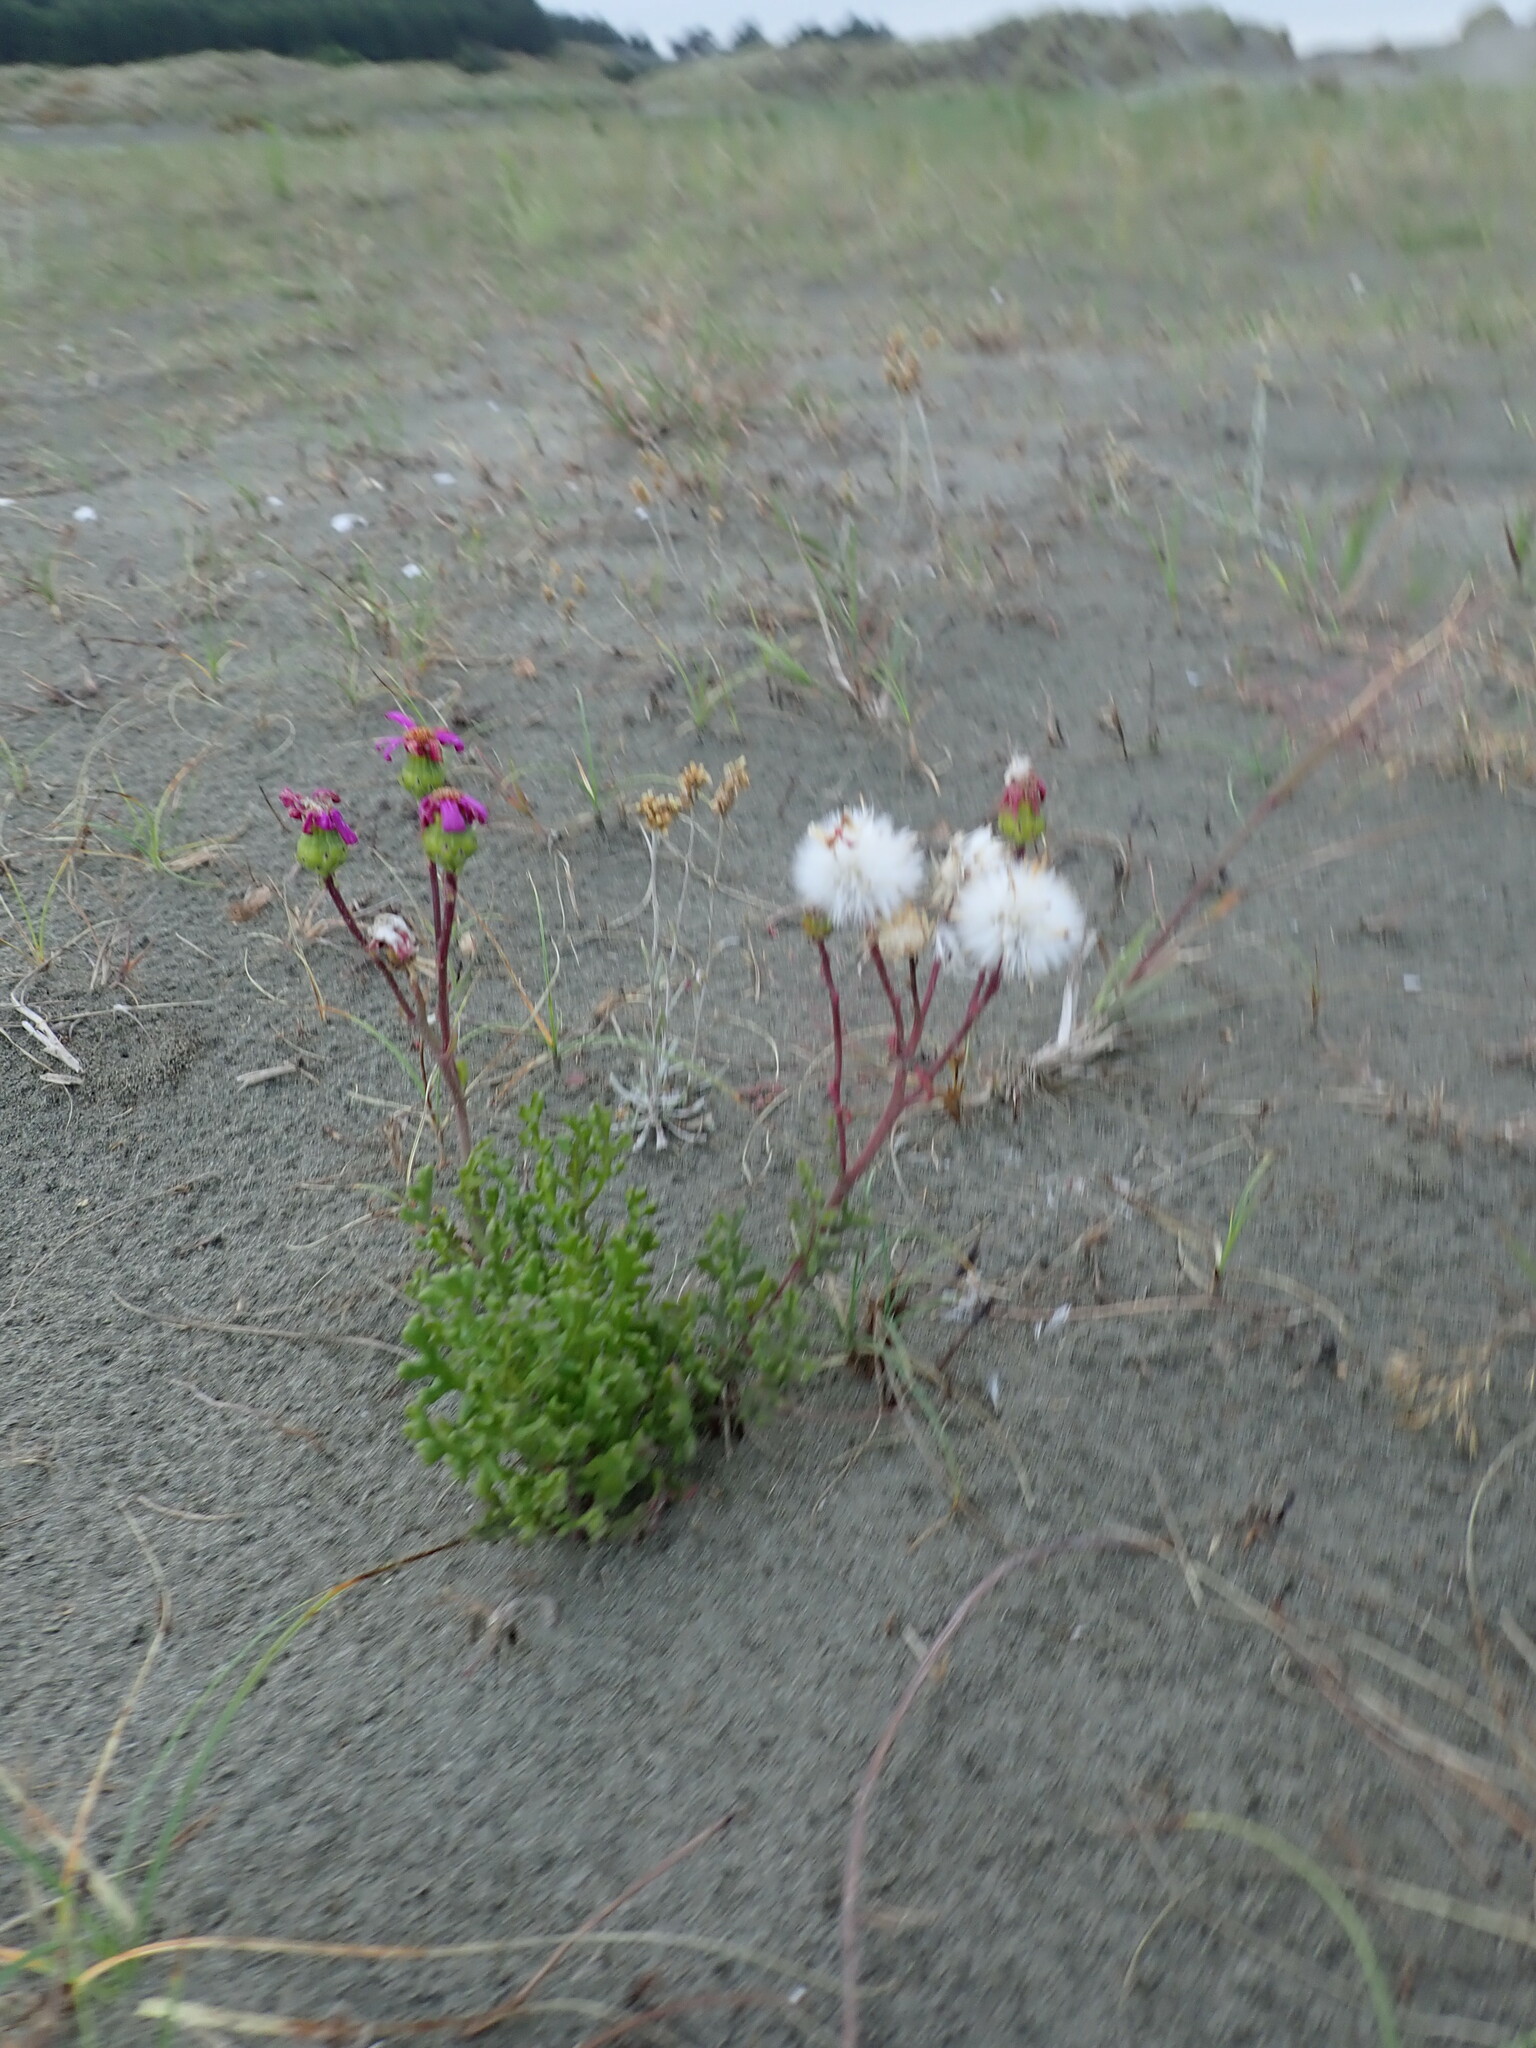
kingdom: Plantae
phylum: Tracheophyta
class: Magnoliopsida
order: Asterales
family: Asteraceae
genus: Senecio
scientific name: Senecio elegans
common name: Purple groundsel
